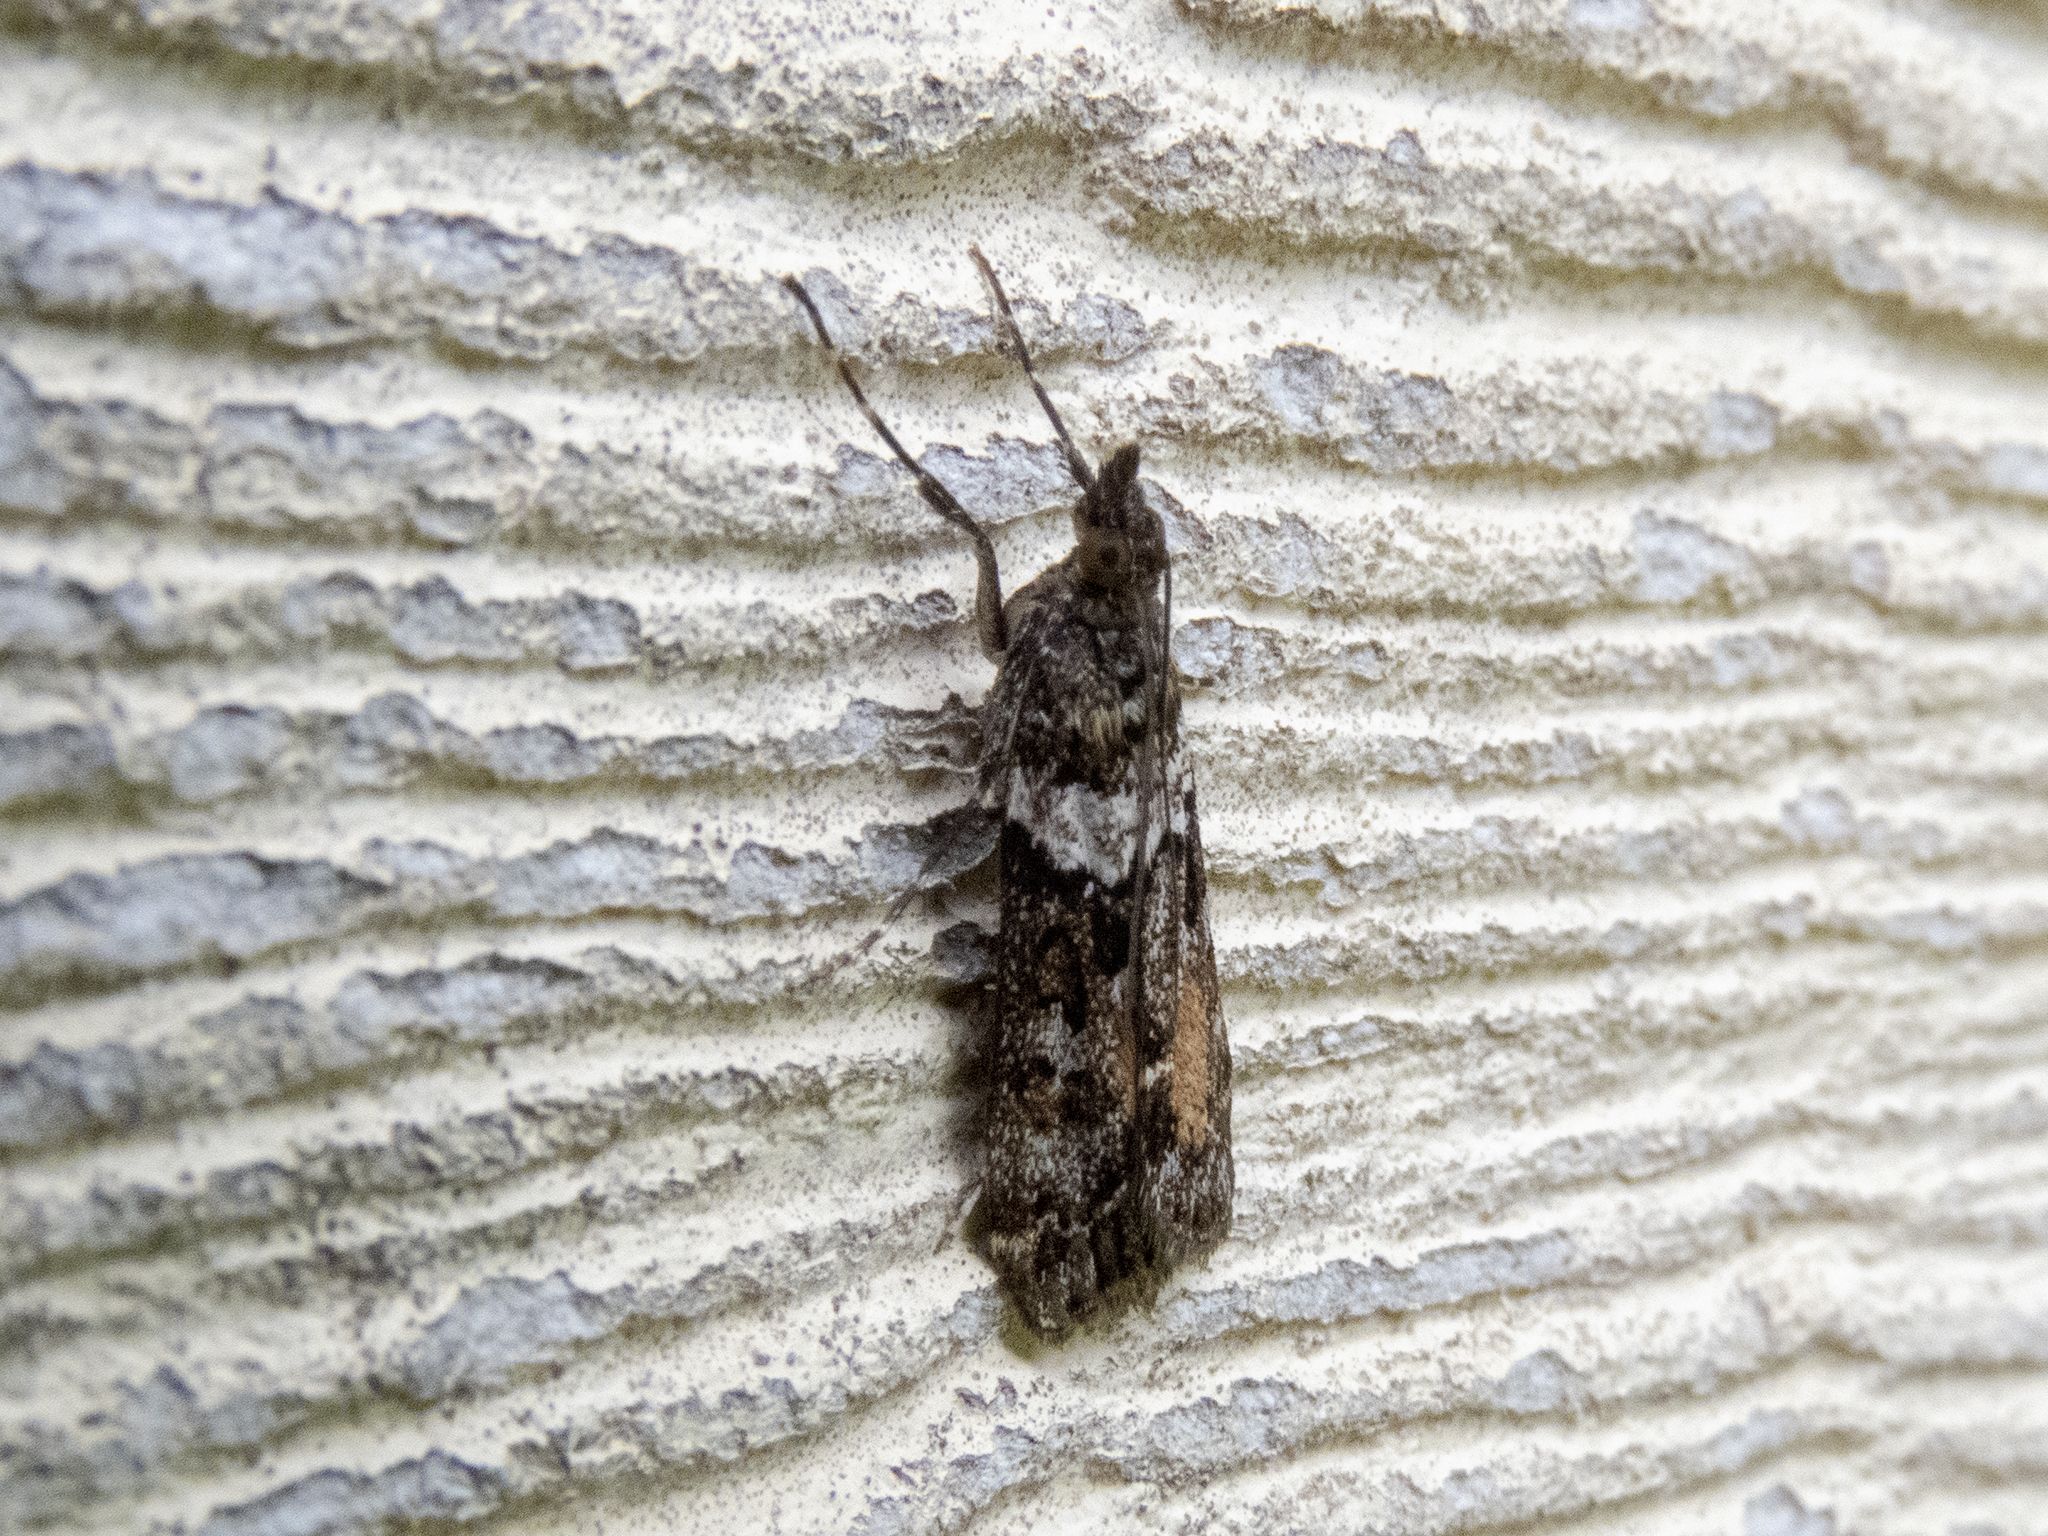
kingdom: Animalia
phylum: Arthropoda
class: Insecta
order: Lepidoptera
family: Crambidae
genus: Eudonia
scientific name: Eudonia submarginalis
